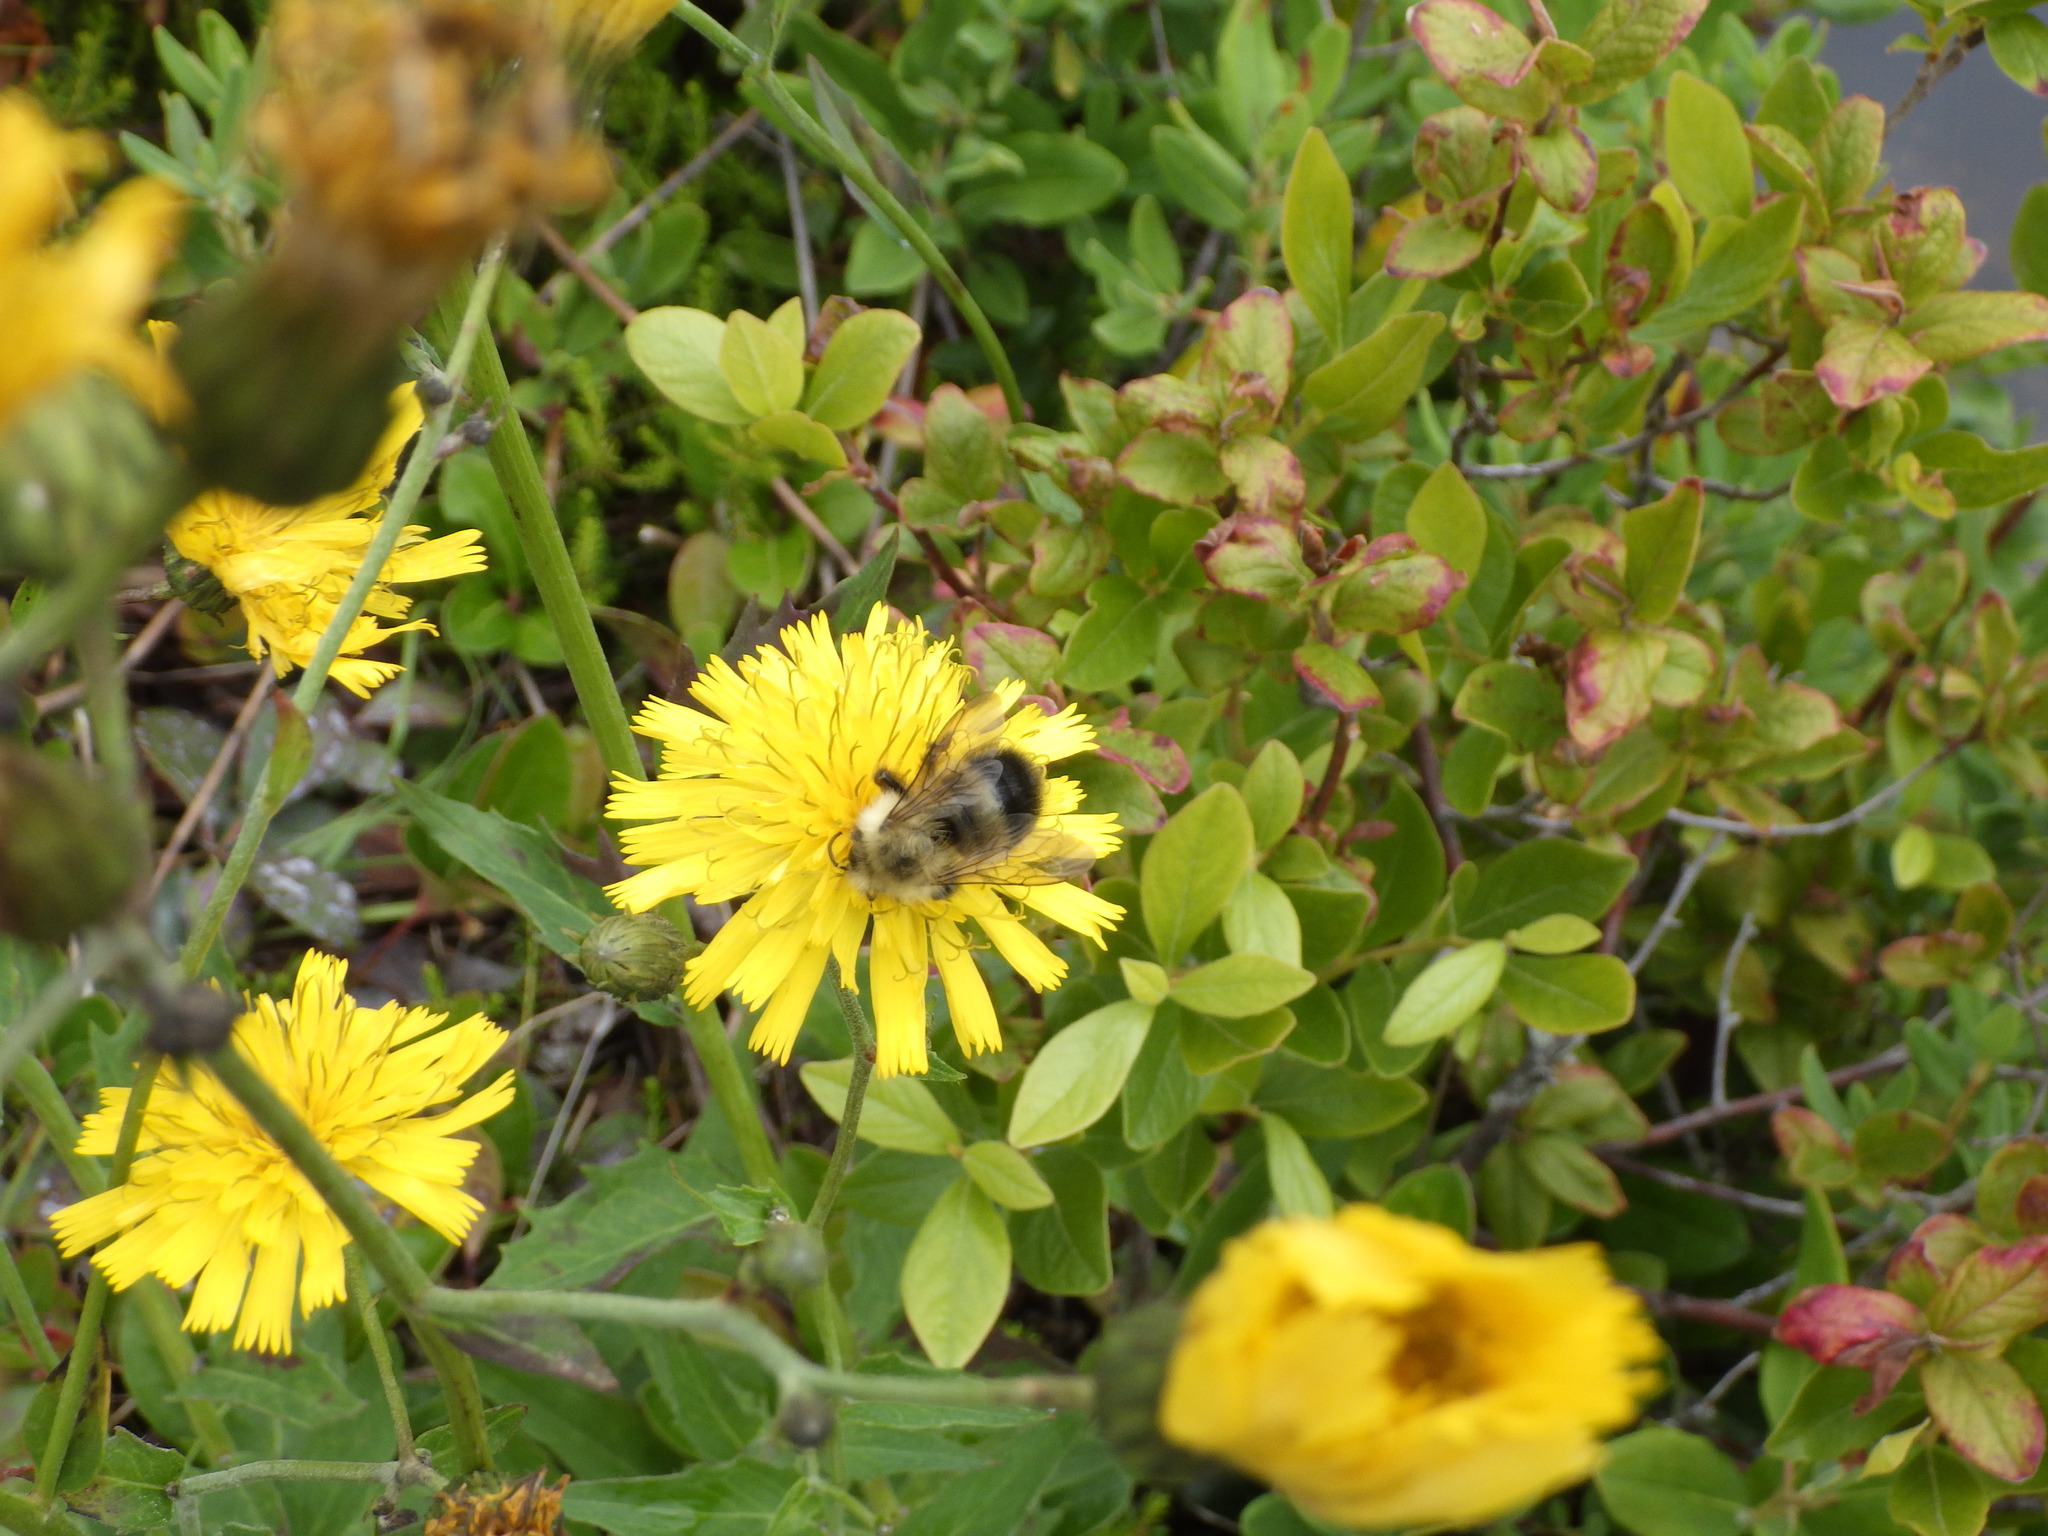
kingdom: Animalia
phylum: Arthropoda
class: Insecta
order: Hymenoptera
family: Apidae
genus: Pyrobombus
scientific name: Pyrobombus
